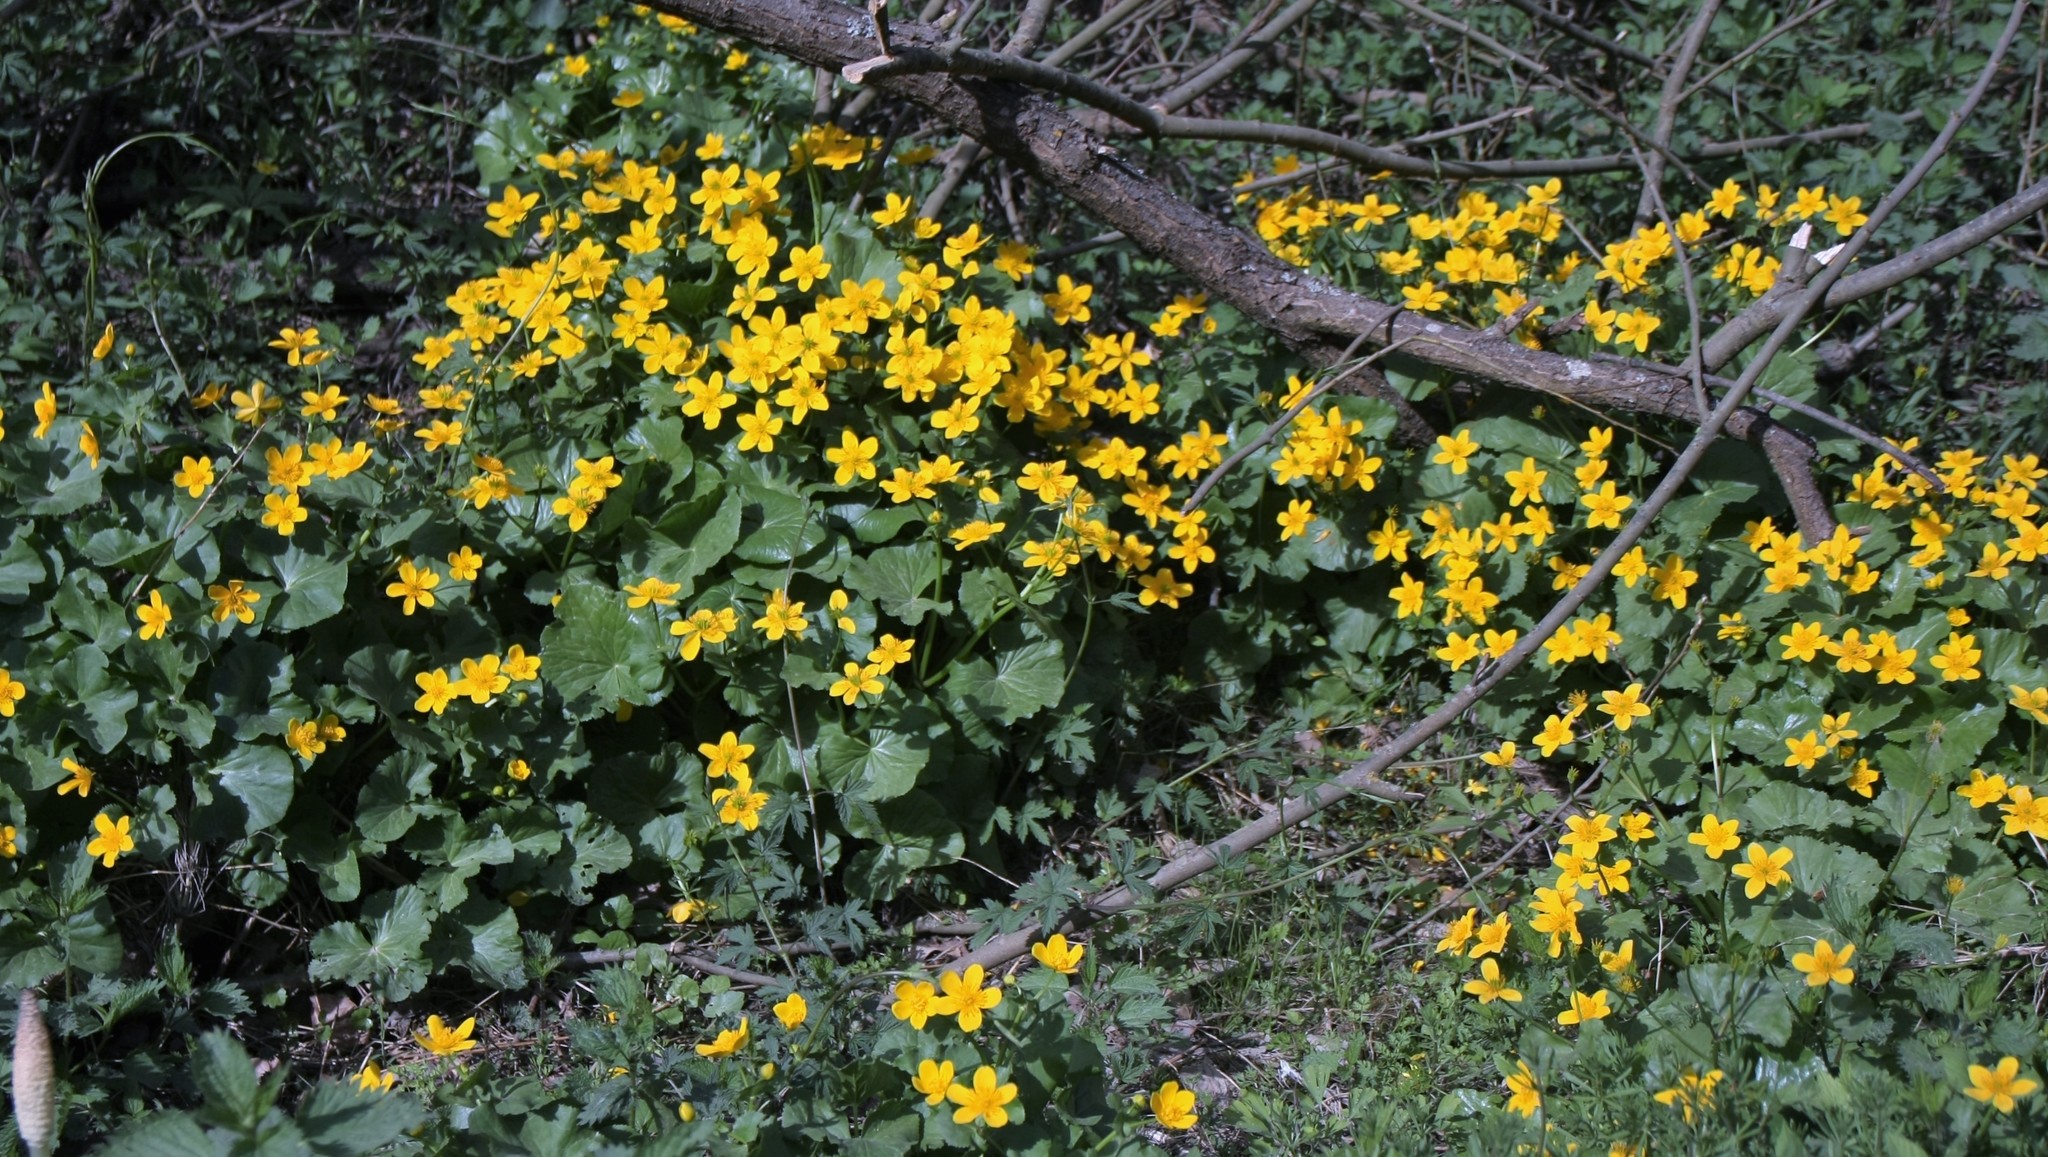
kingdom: Plantae
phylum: Tracheophyta
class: Magnoliopsida
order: Ranunculales
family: Ranunculaceae
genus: Caltha
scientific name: Caltha palustris
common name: Marsh marigold
